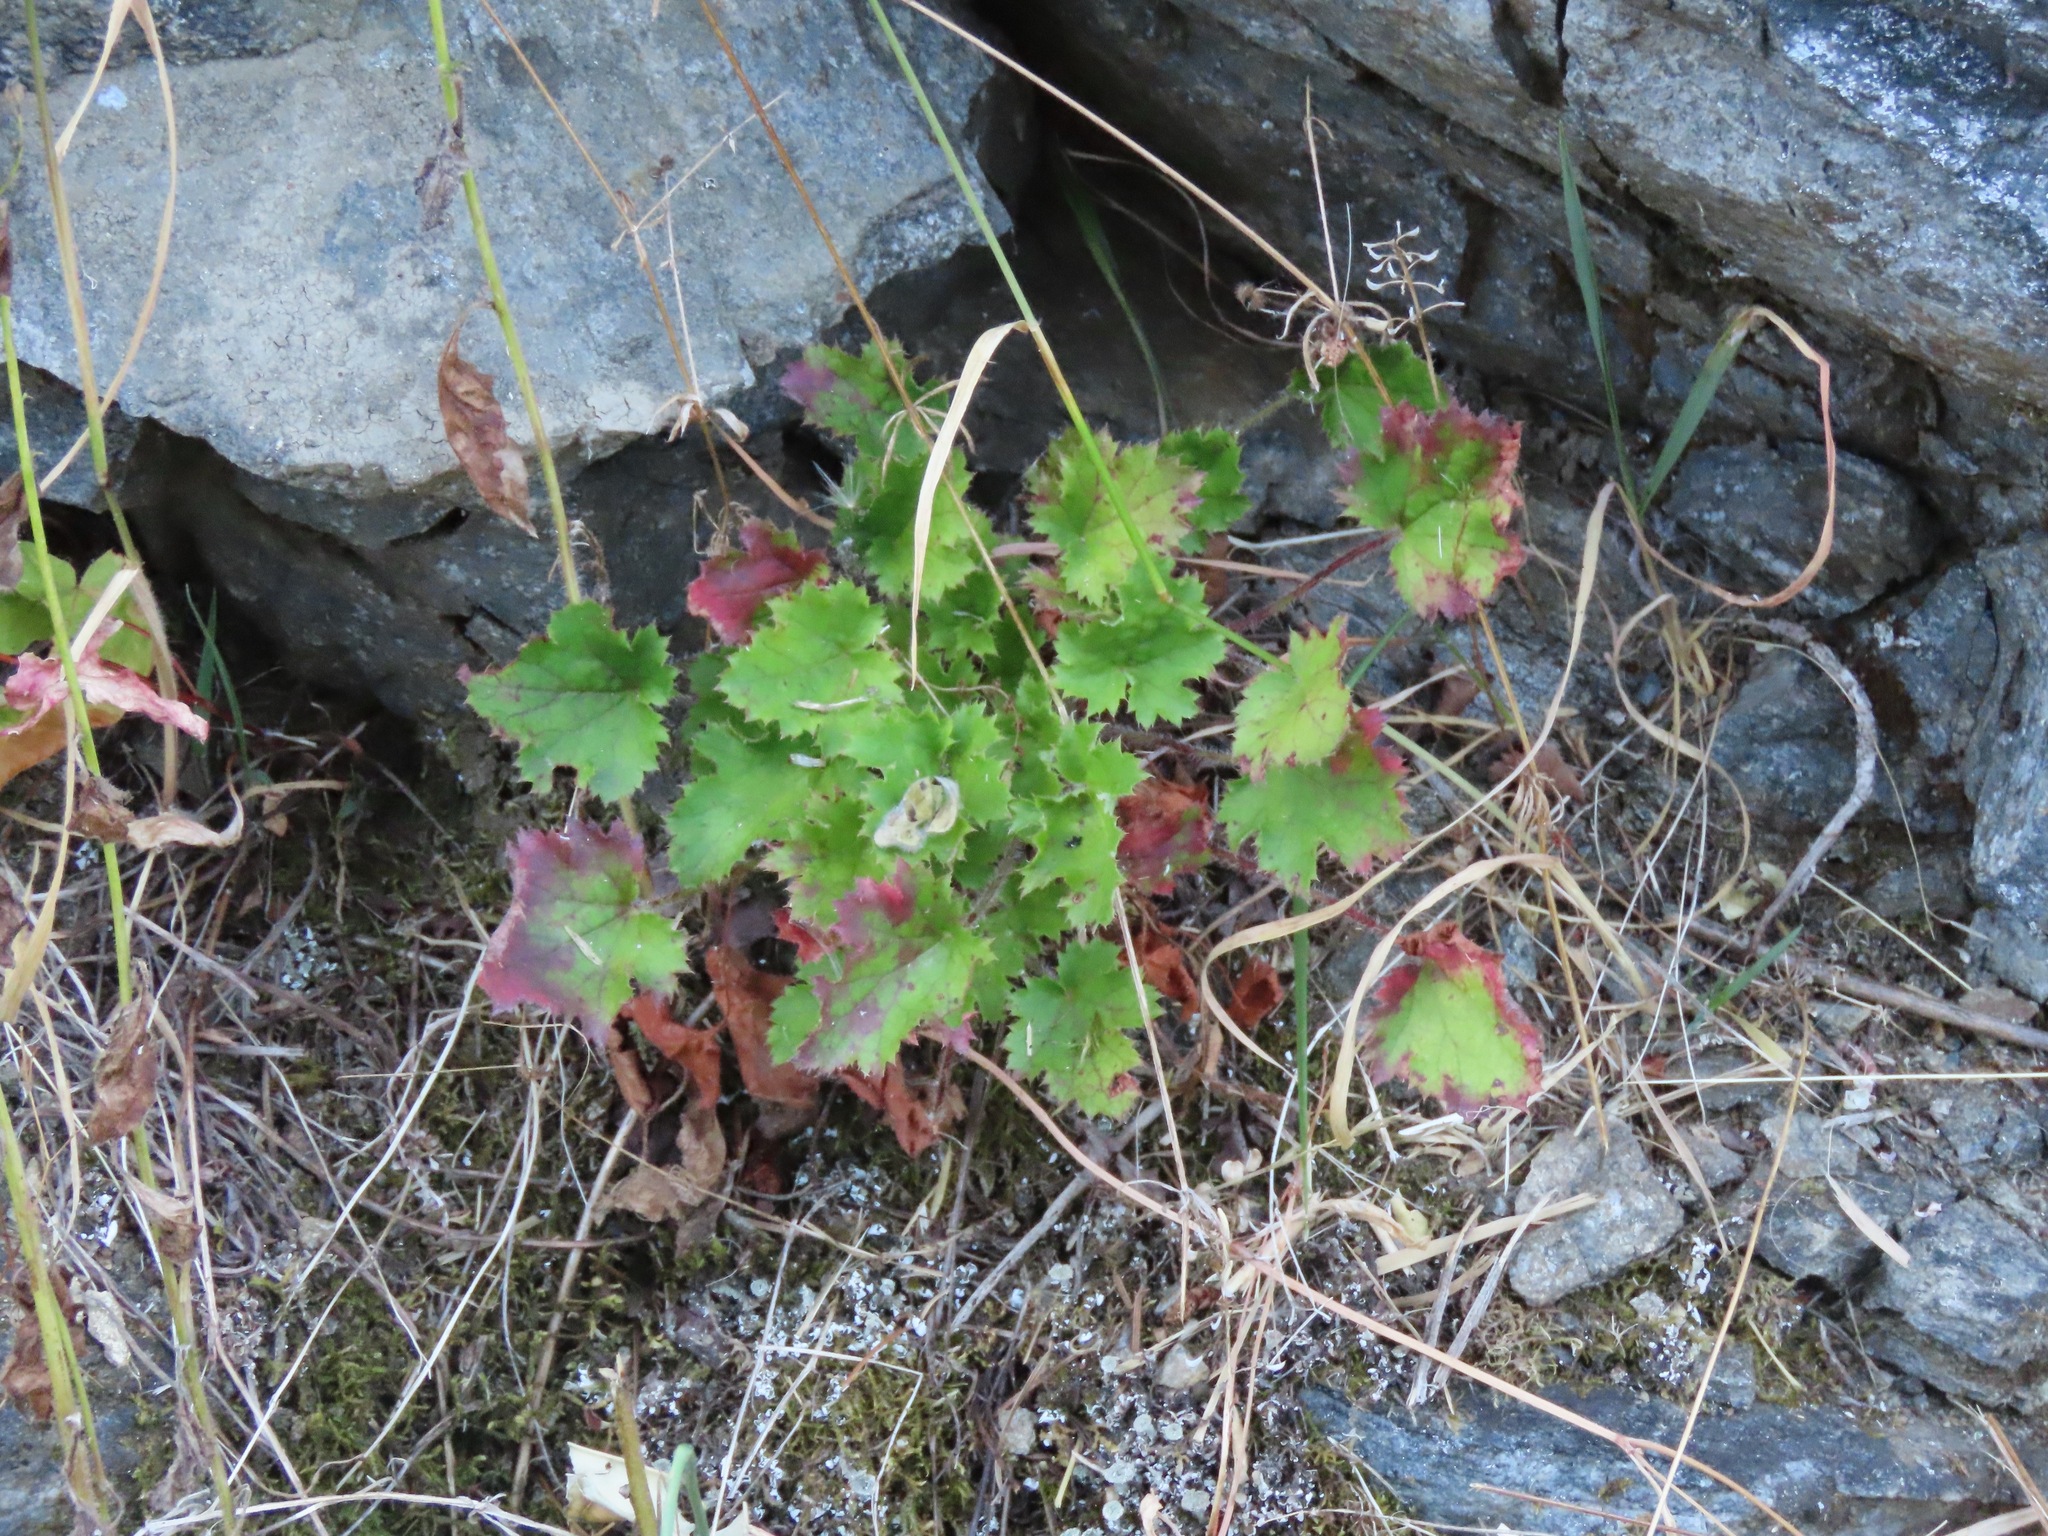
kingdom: Plantae
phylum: Tracheophyta
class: Magnoliopsida
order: Saxifragales
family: Saxifragaceae
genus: Heuchera
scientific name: Heuchera micrantha
